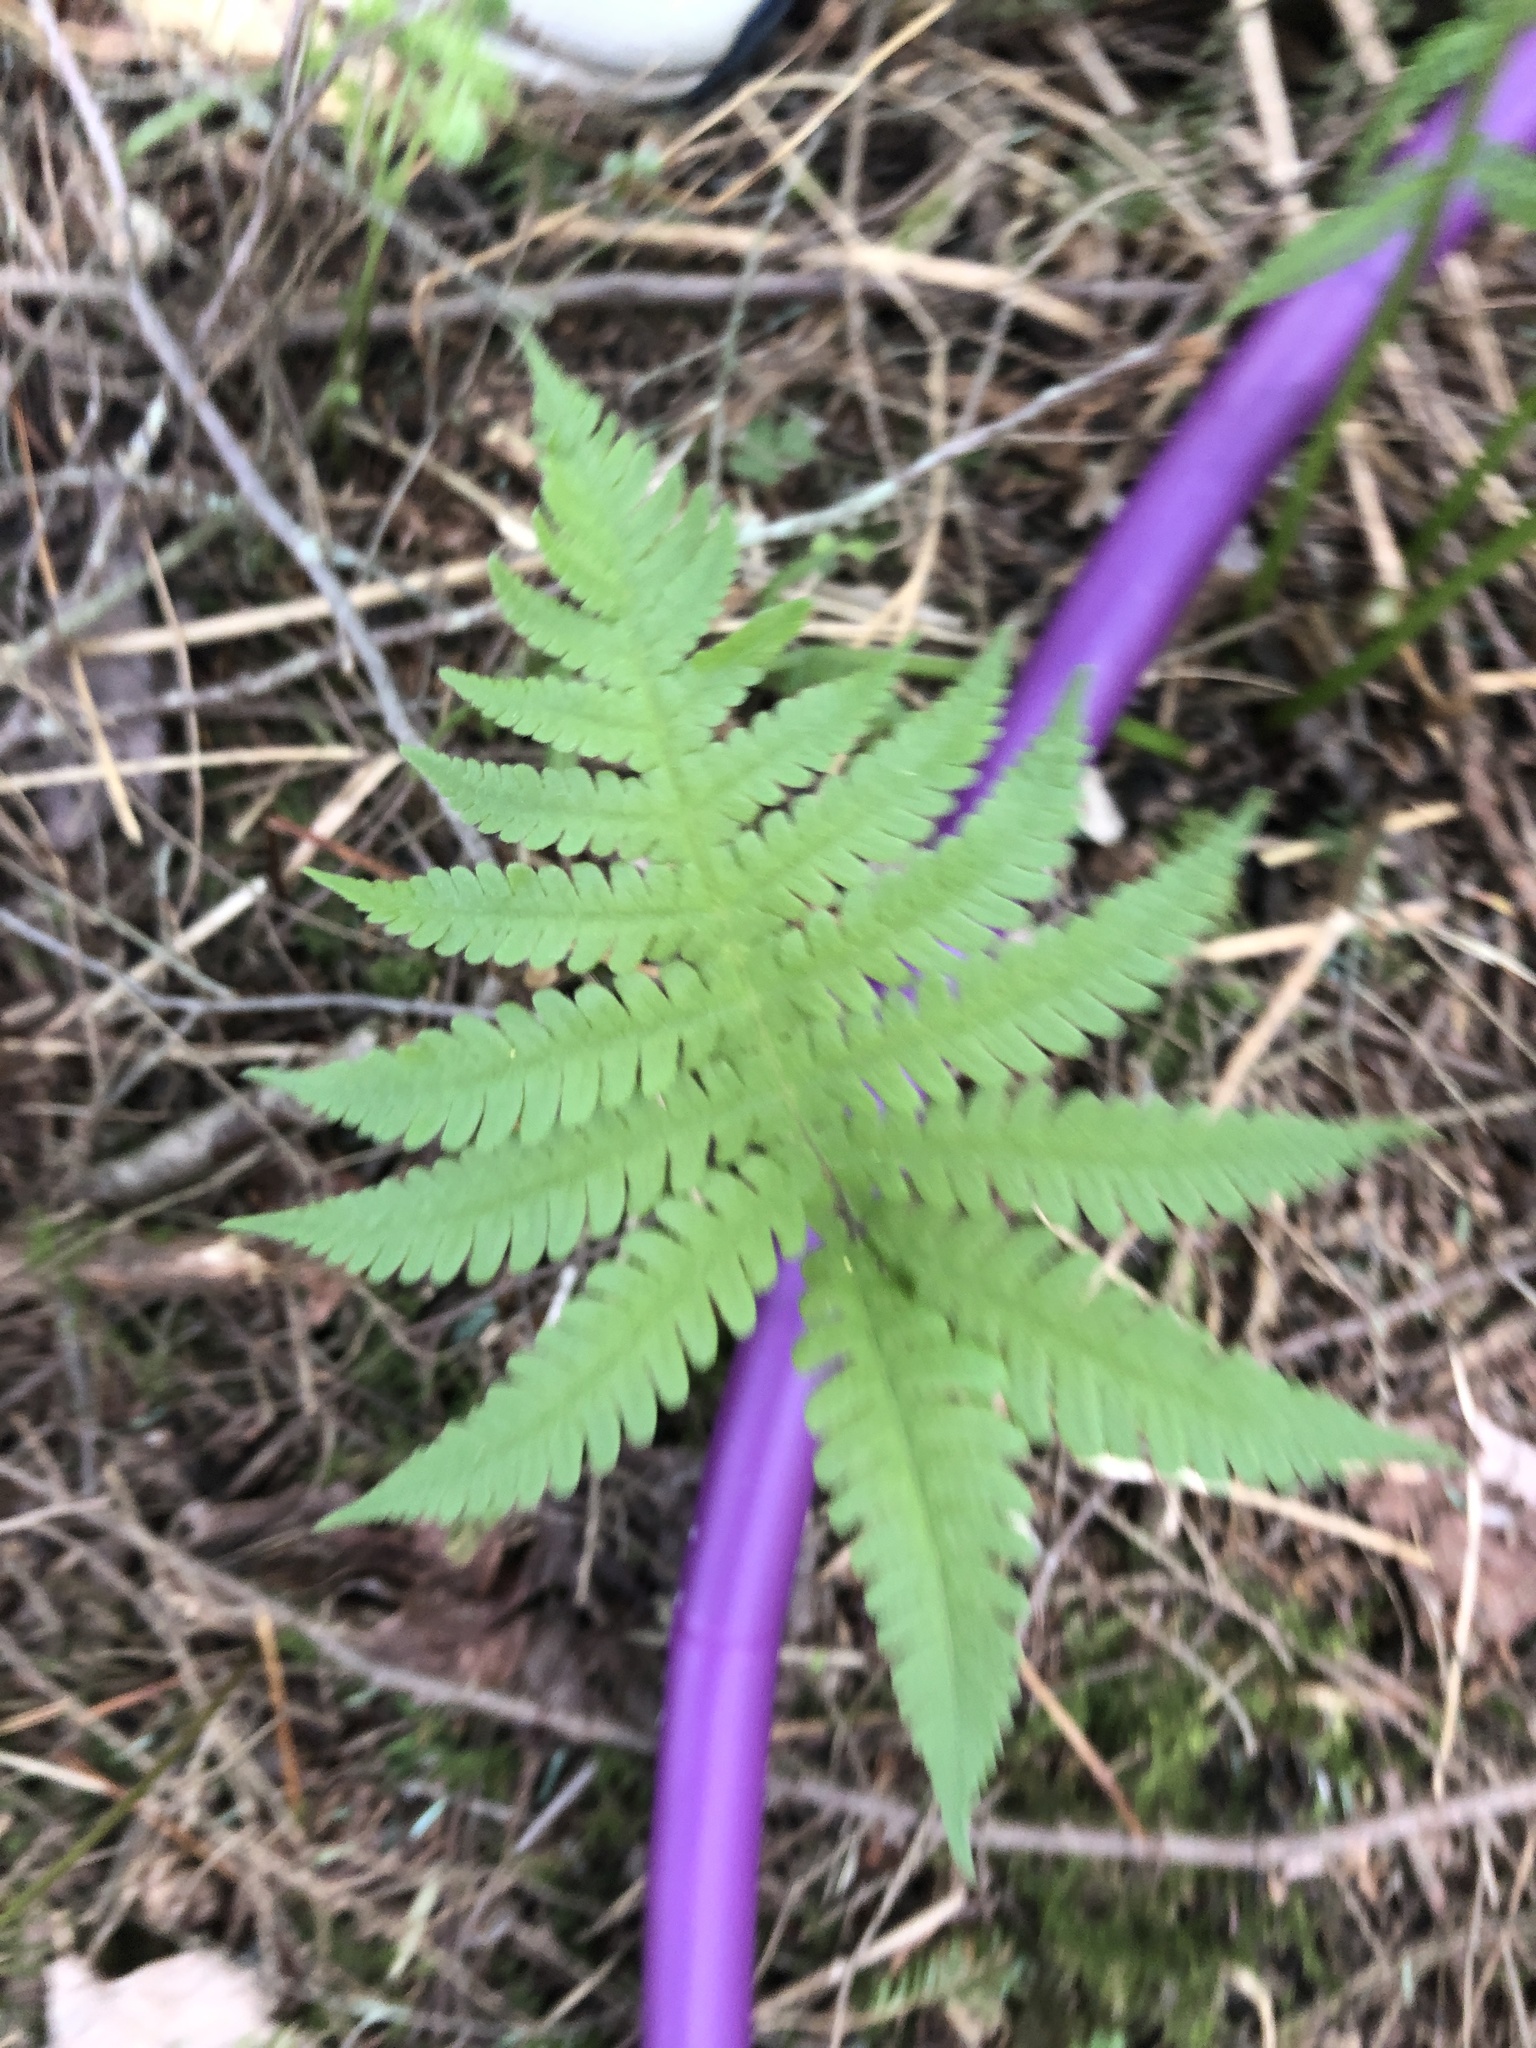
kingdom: Plantae
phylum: Tracheophyta
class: Polypodiopsida
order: Polypodiales
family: Thelypteridaceae
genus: Phegopteris
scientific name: Phegopteris connectilis
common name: Beech fern
